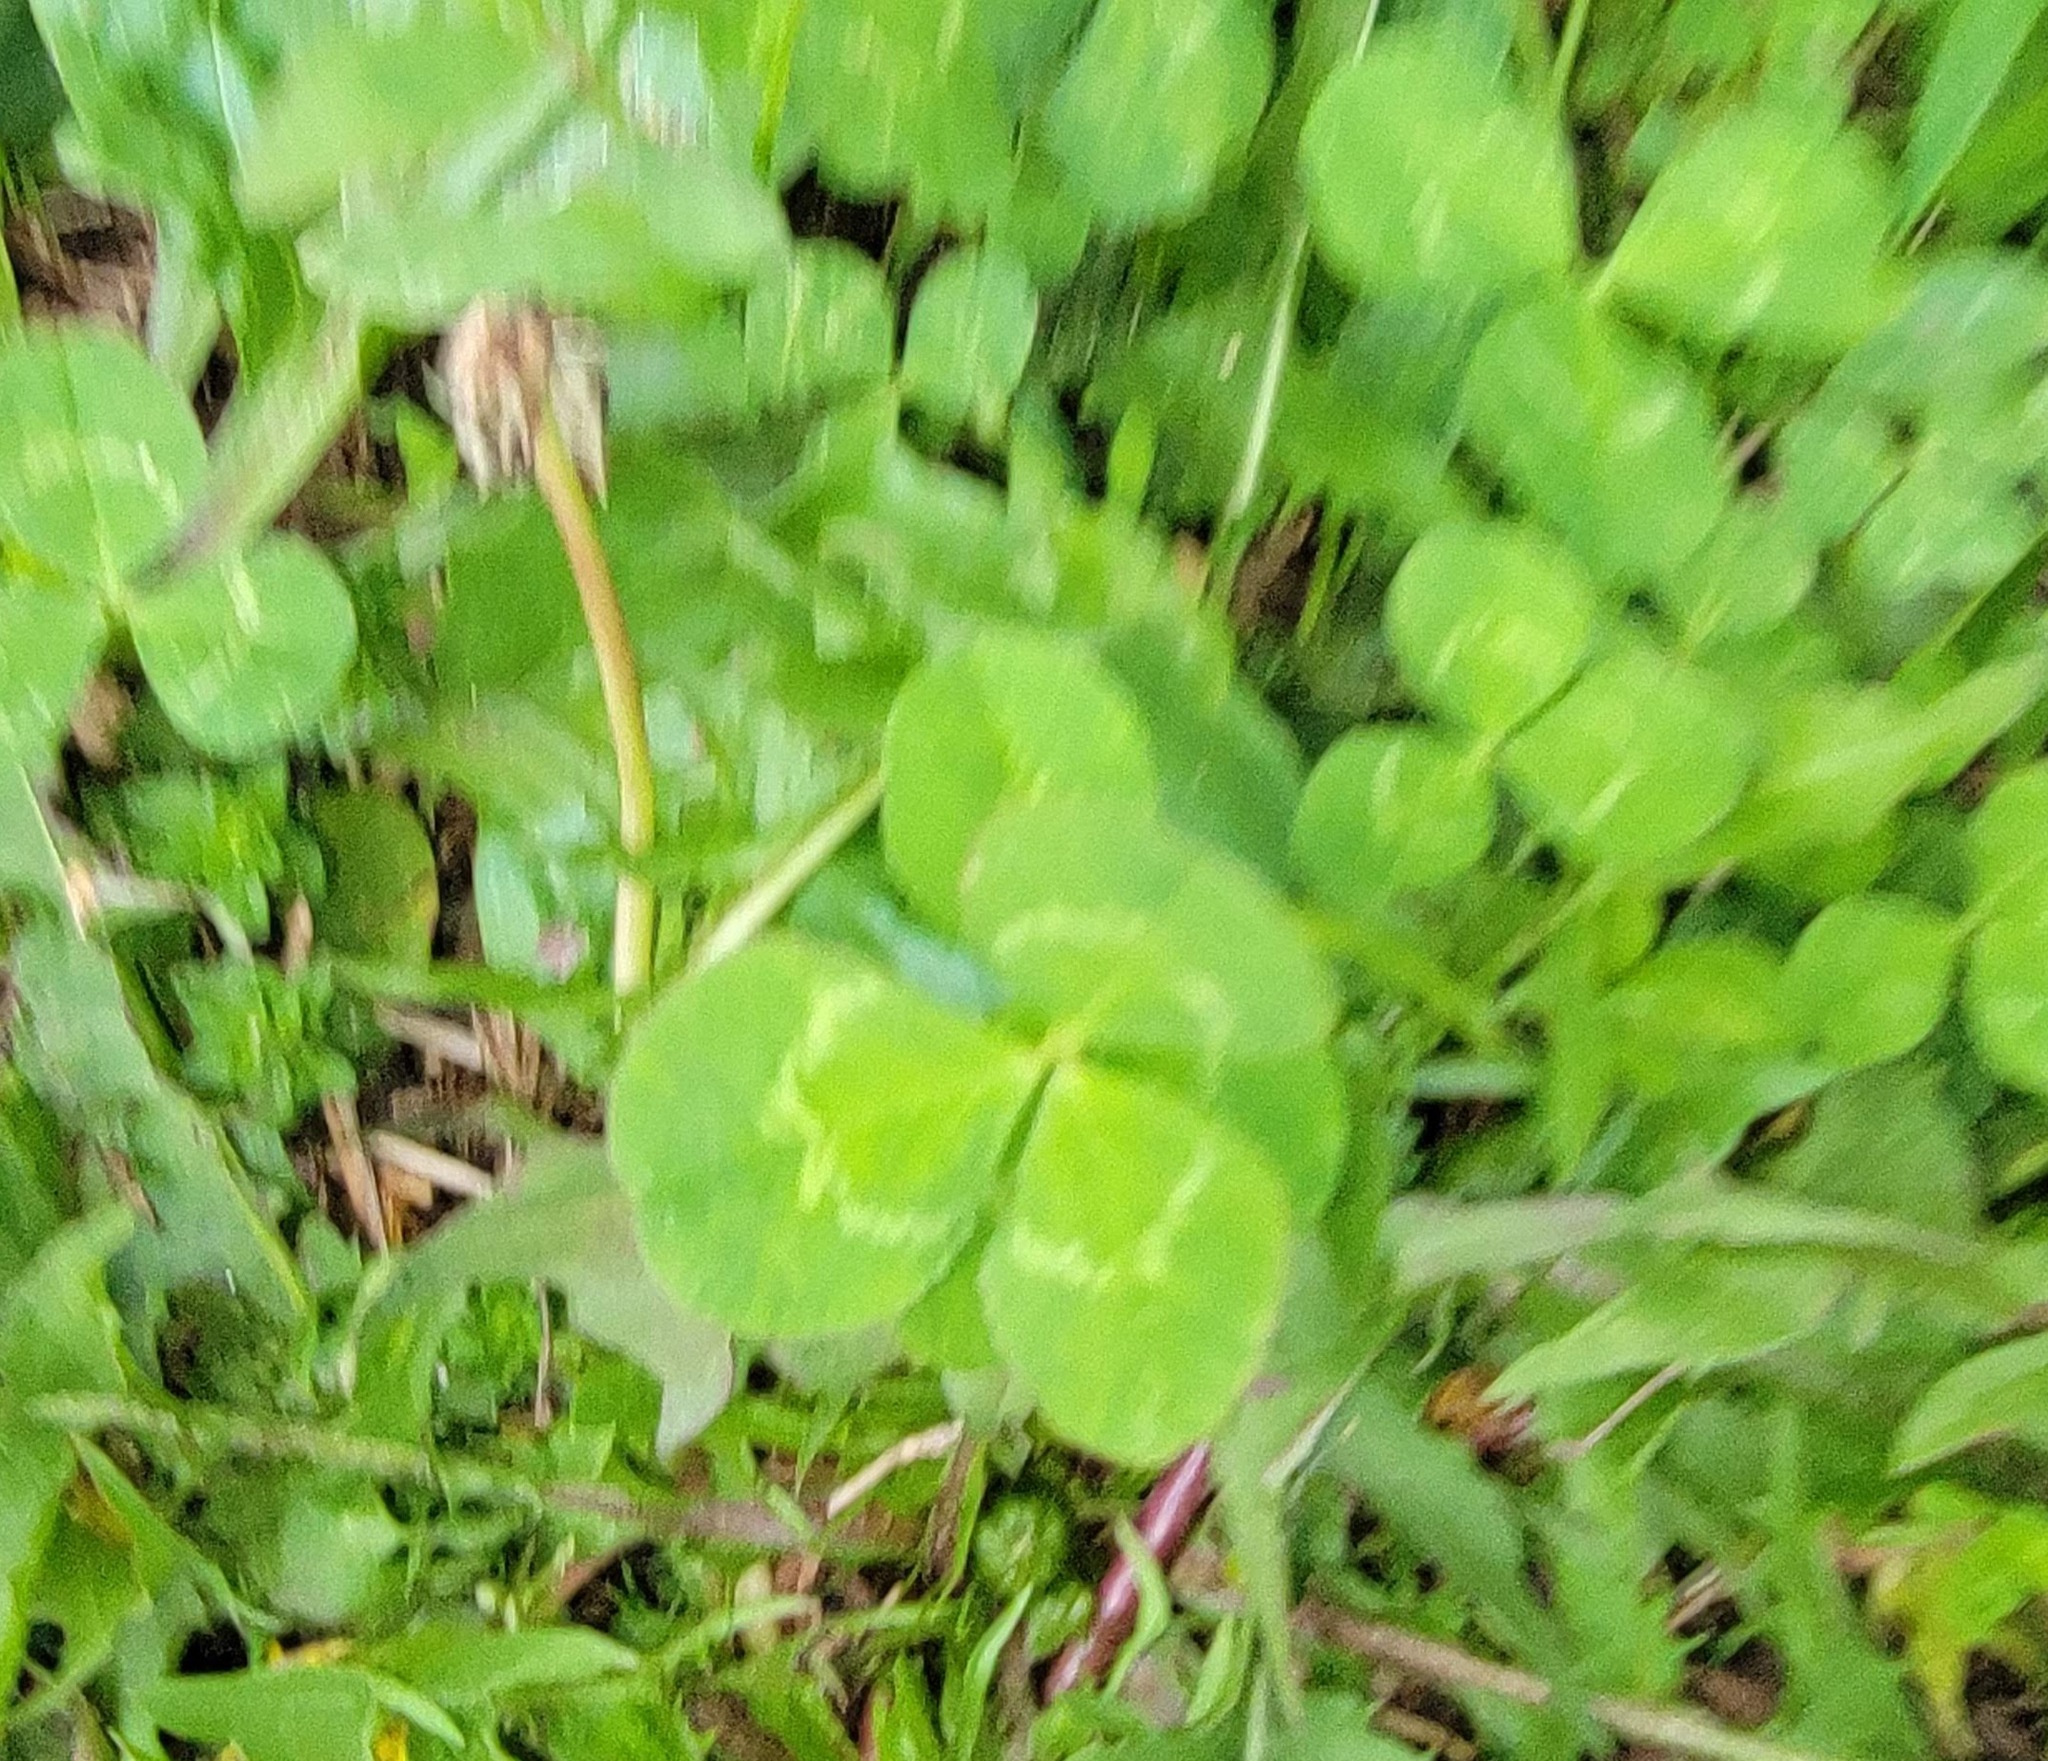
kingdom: Plantae
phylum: Tracheophyta
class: Magnoliopsida
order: Fabales
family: Fabaceae
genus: Trifolium
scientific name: Trifolium repens
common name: White clover
